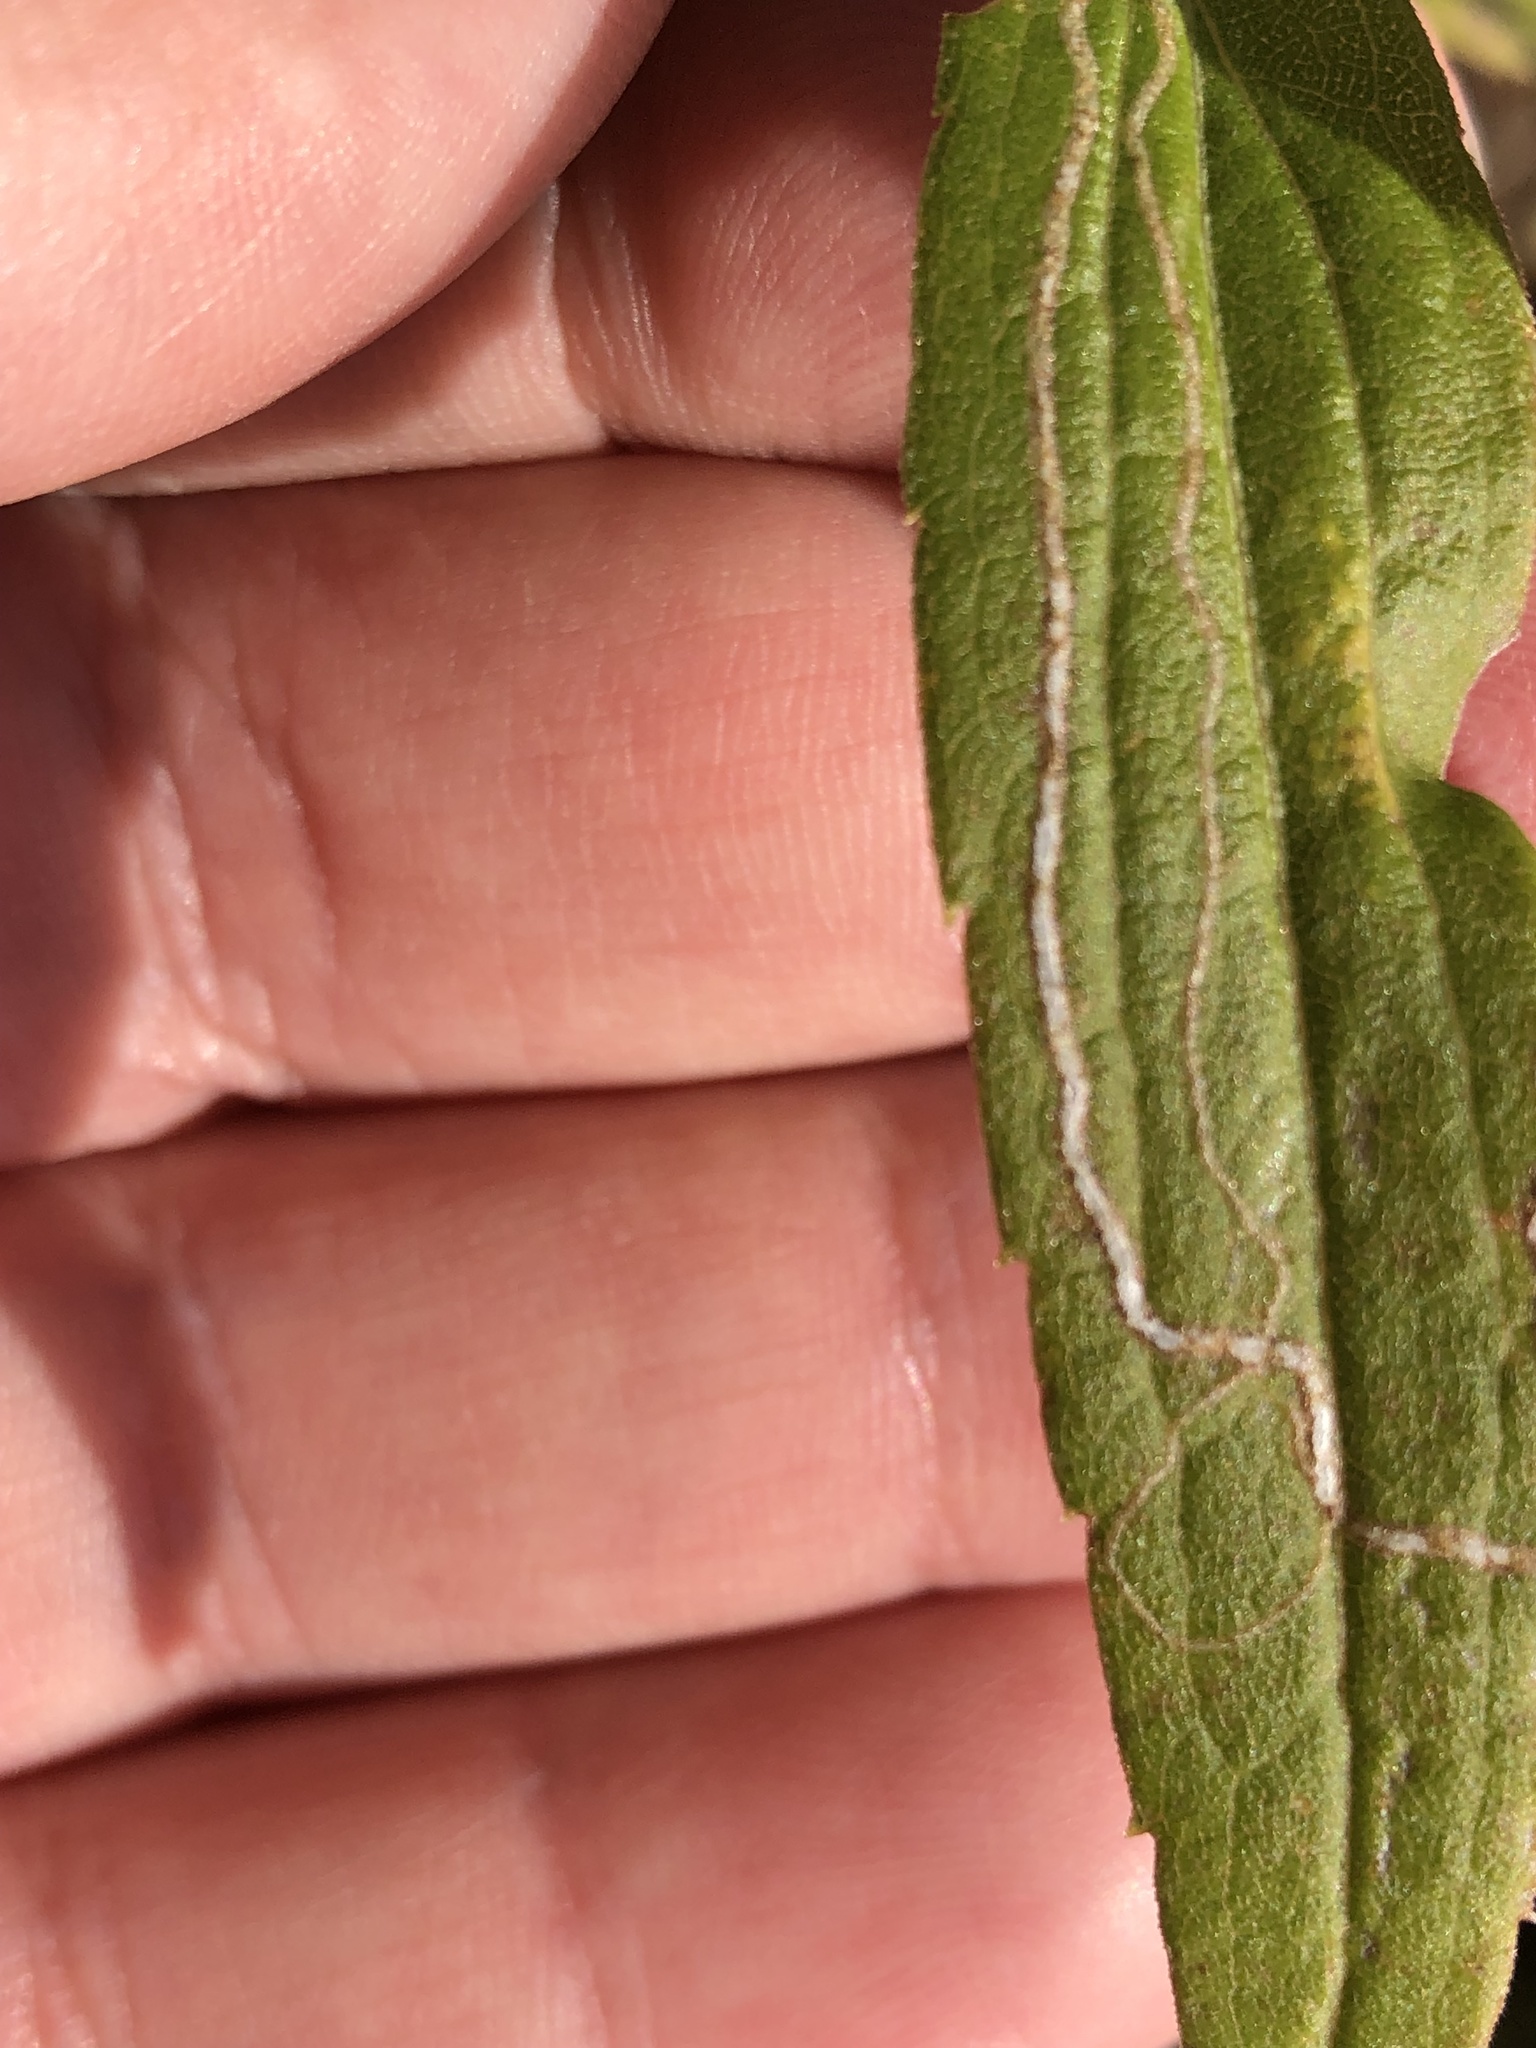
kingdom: Animalia
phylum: Arthropoda
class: Insecta
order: Diptera
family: Agromyzidae
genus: Ophiomyia
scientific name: Ophiomyia maura
